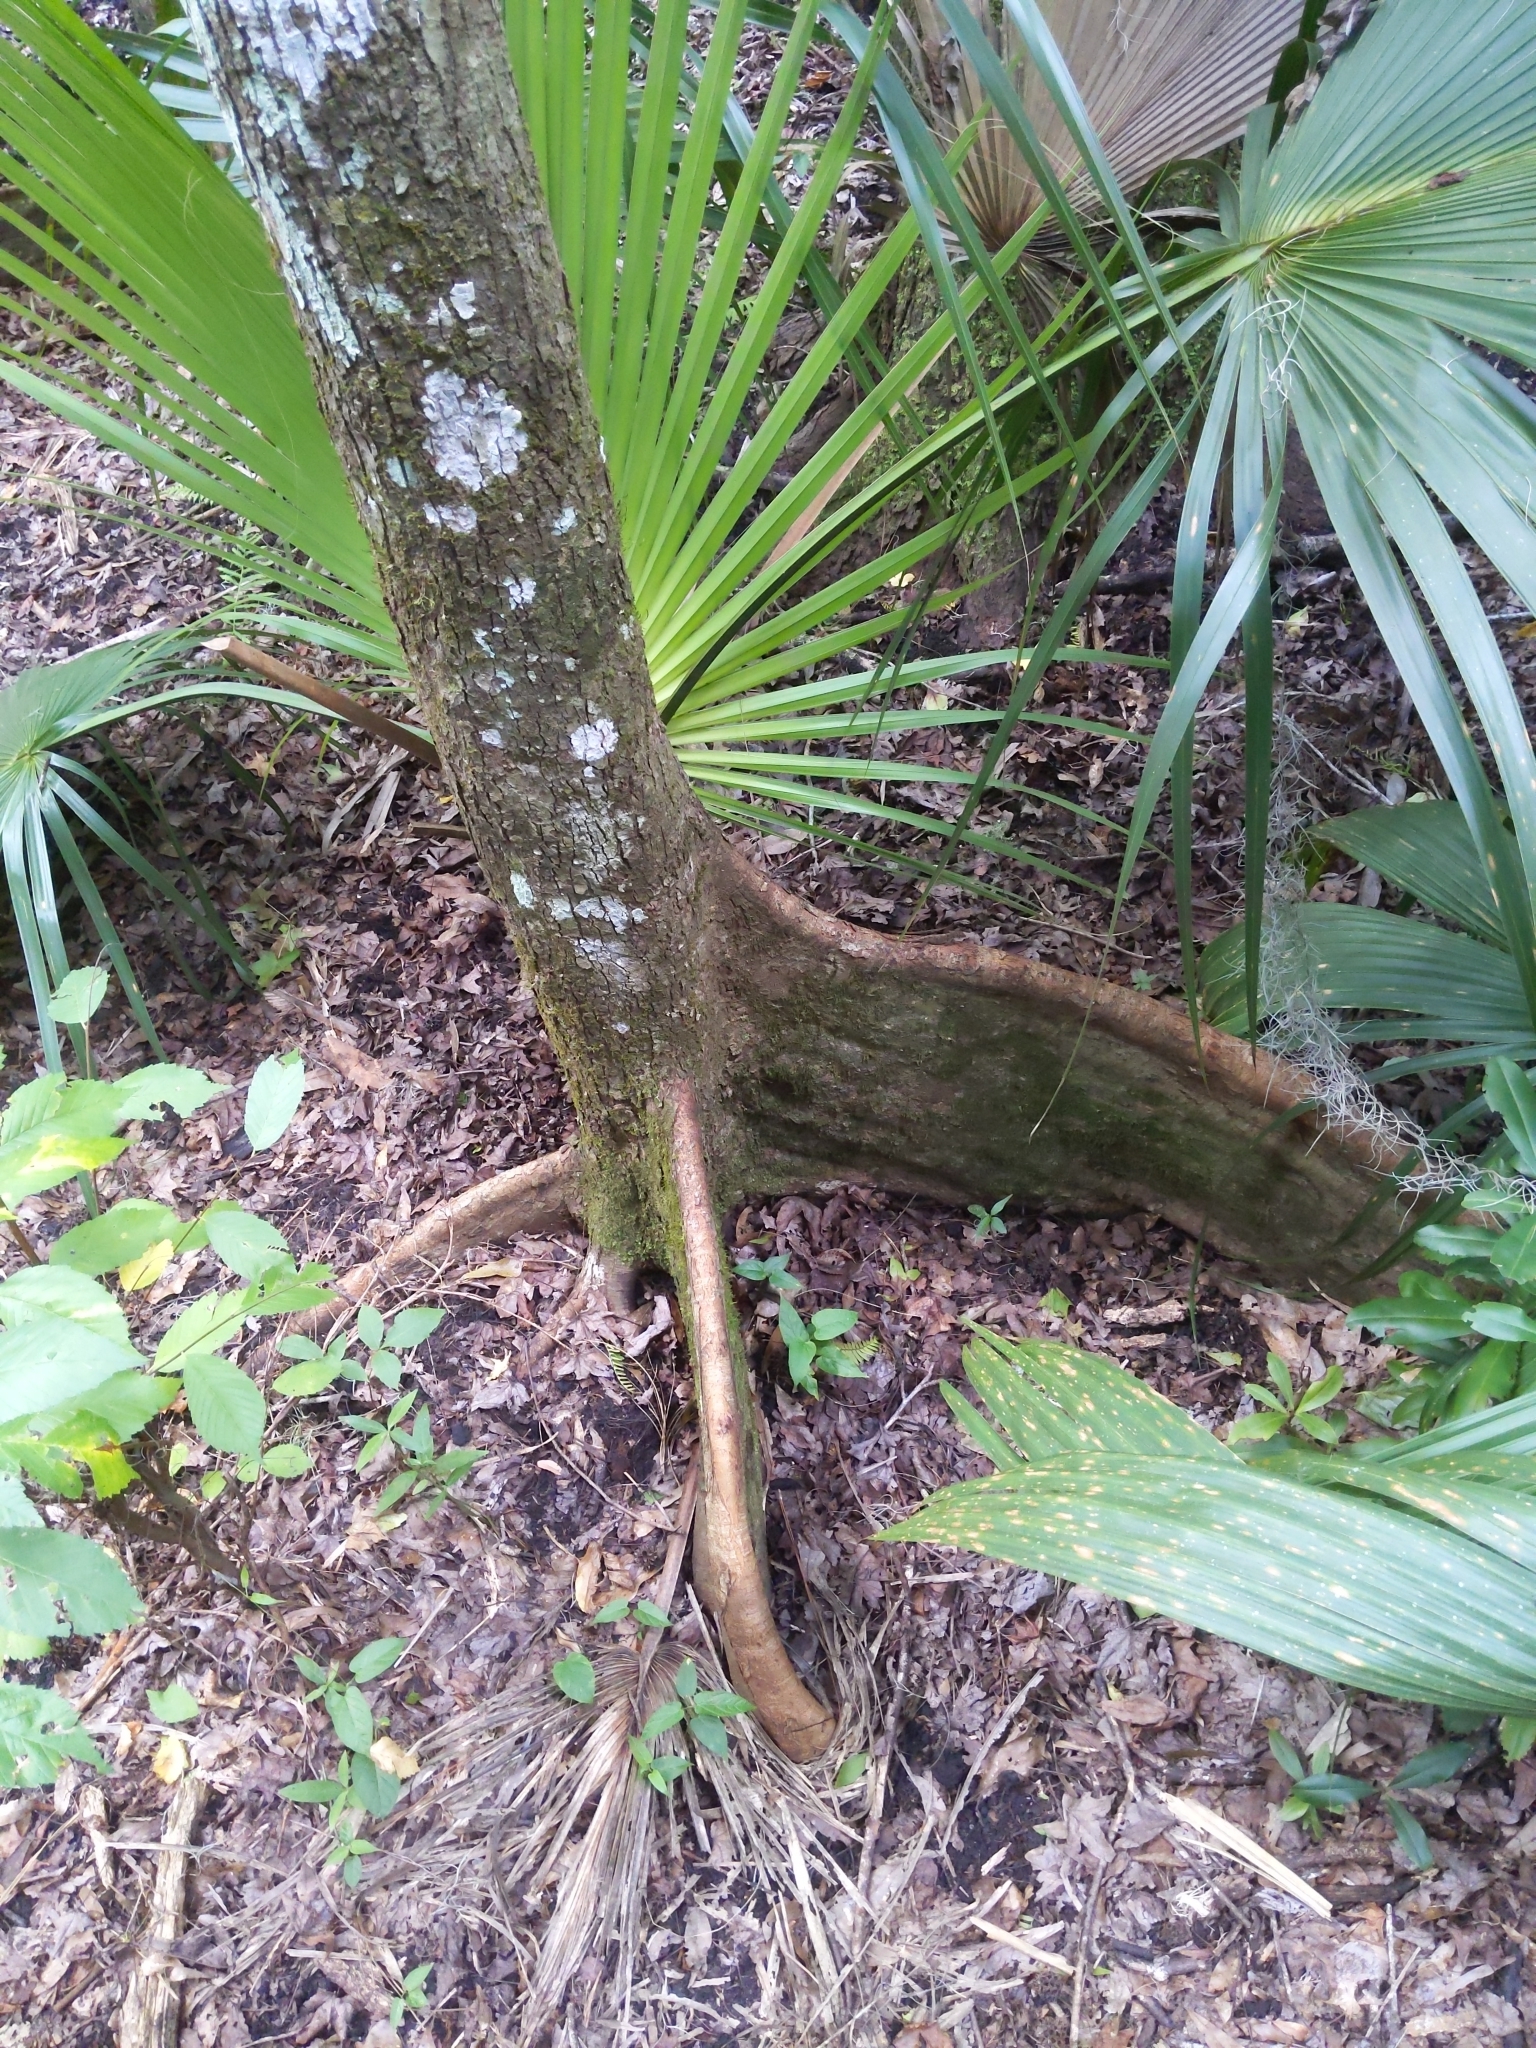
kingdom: Plantae
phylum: Tracheophyta
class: Magnoliopsida
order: Rosales
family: Ulmaceae
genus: Ulmus
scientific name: Ulmus americana
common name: American elm
